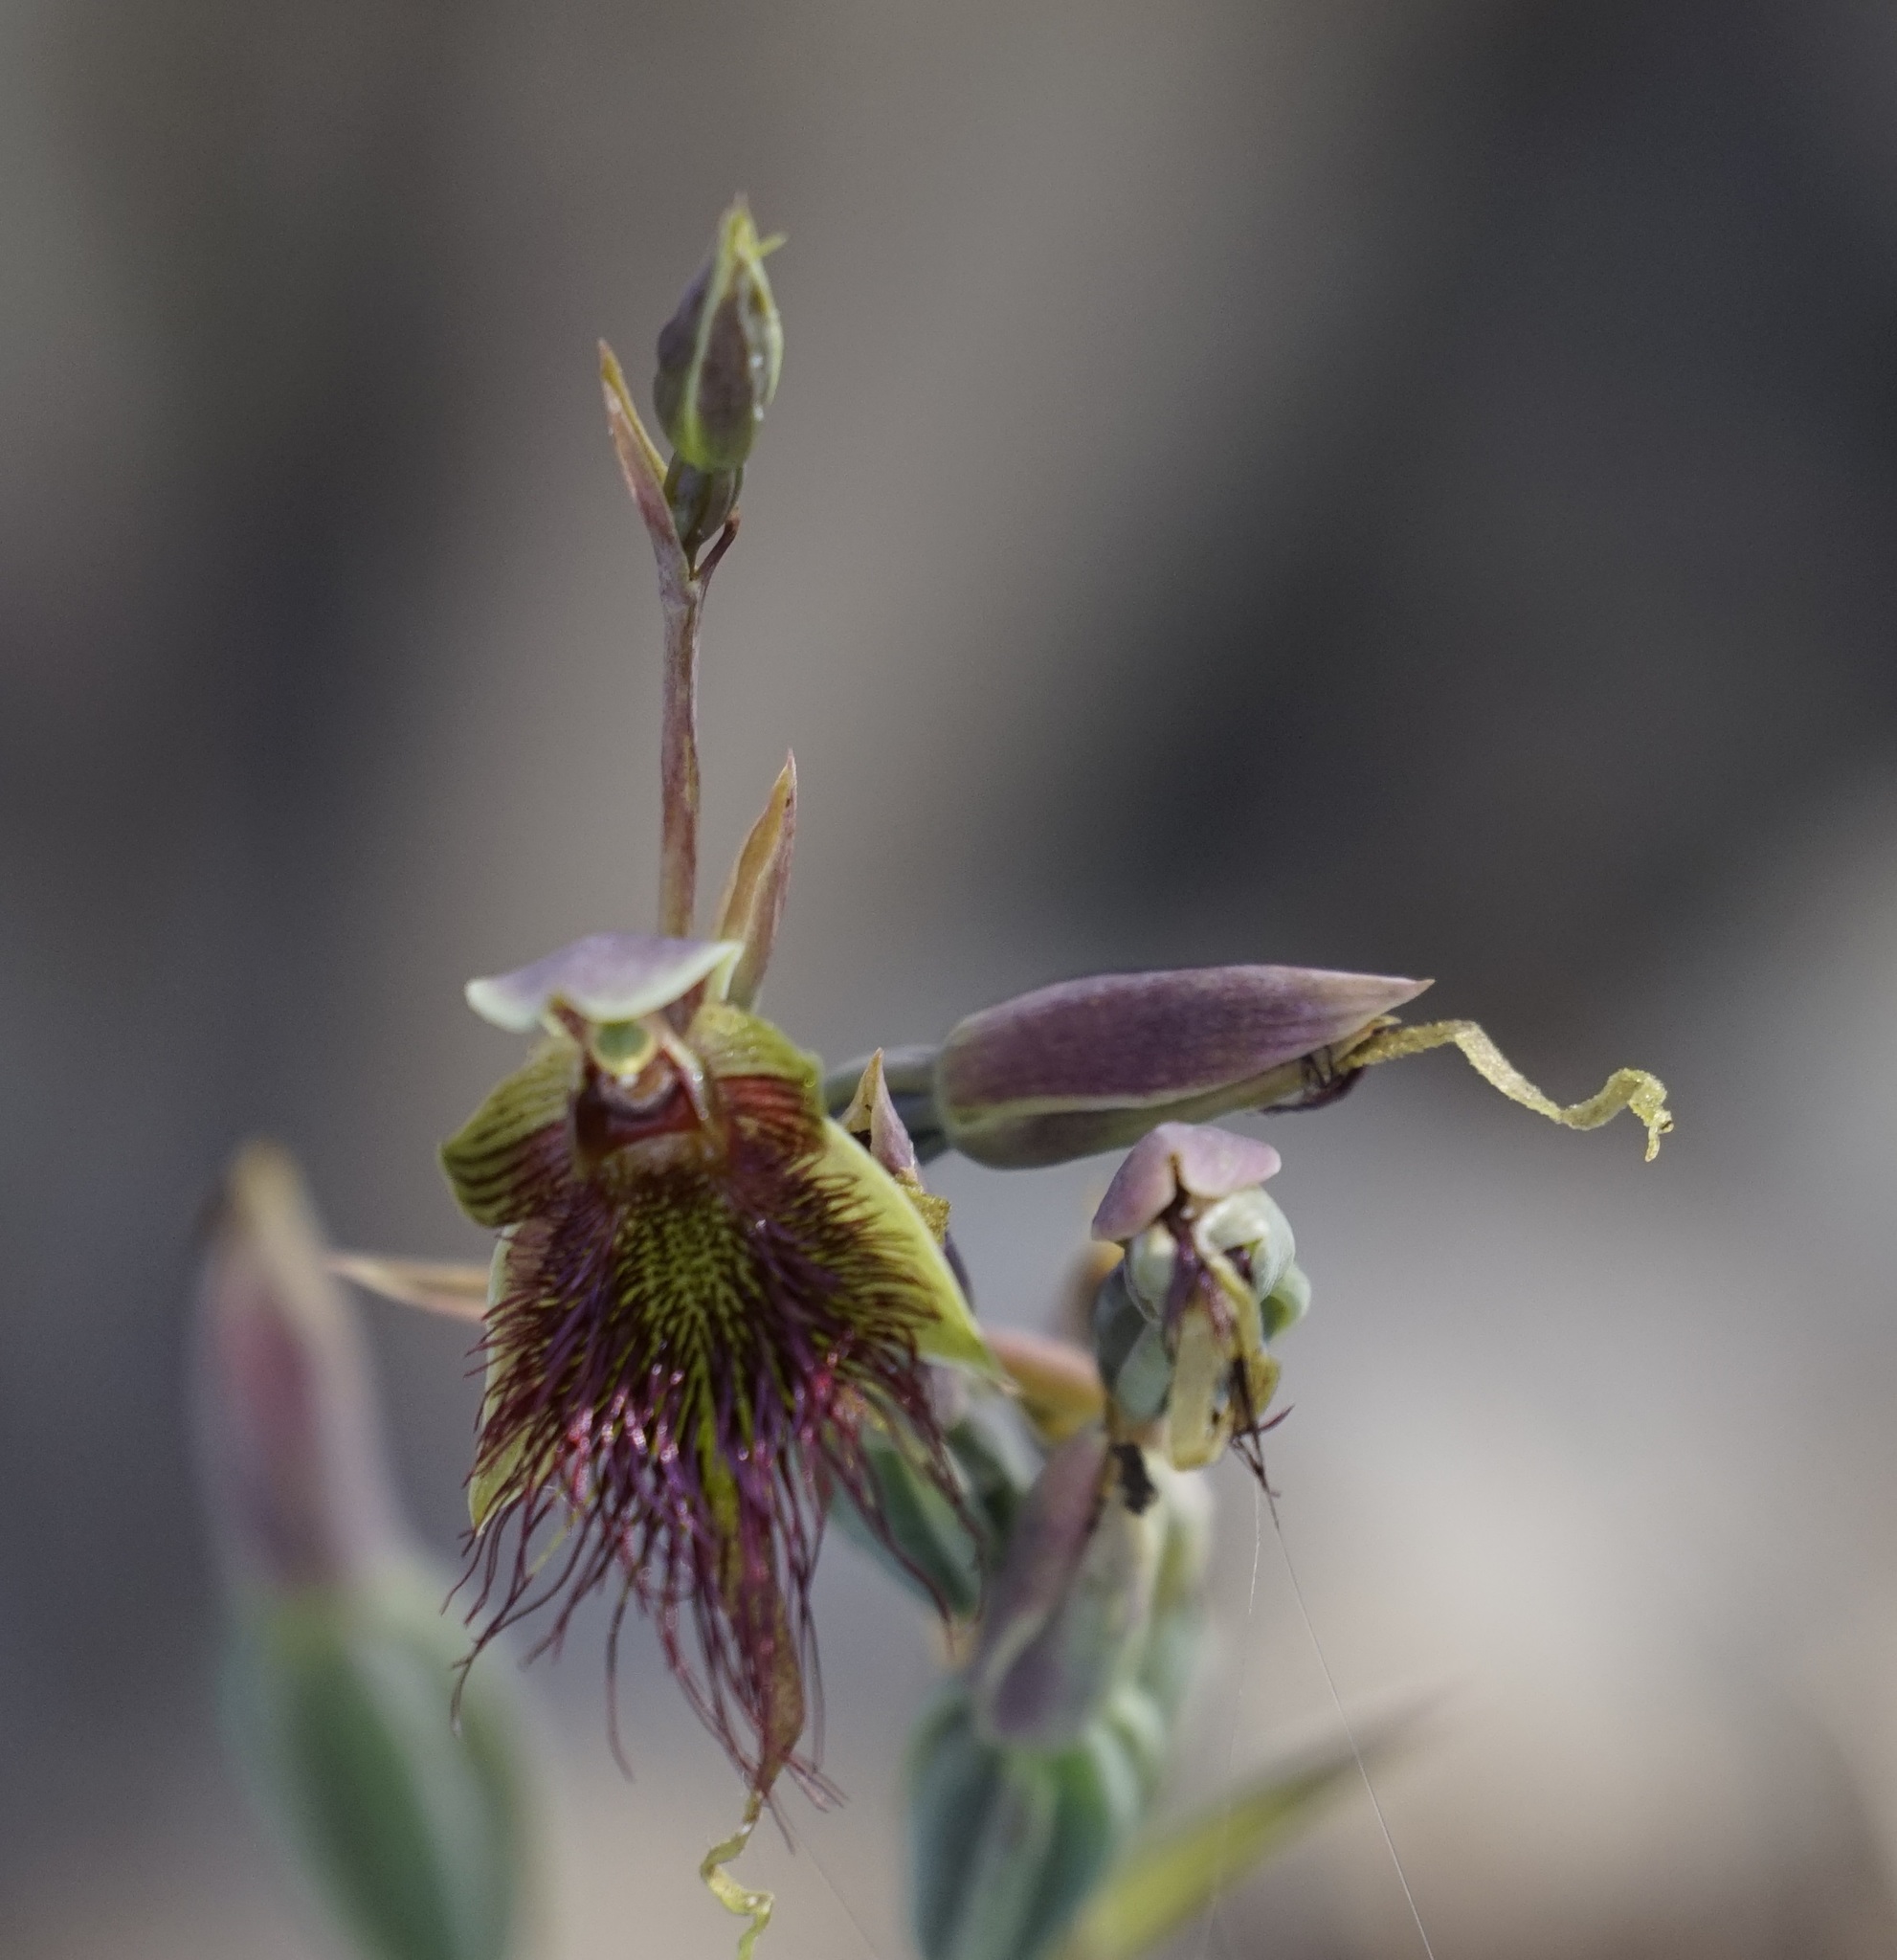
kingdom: Plantae
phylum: Tracheophyta
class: Liliopsida
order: Asparagales
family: Orchidaceae
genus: Calochilus
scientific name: Calochilus paludosus
